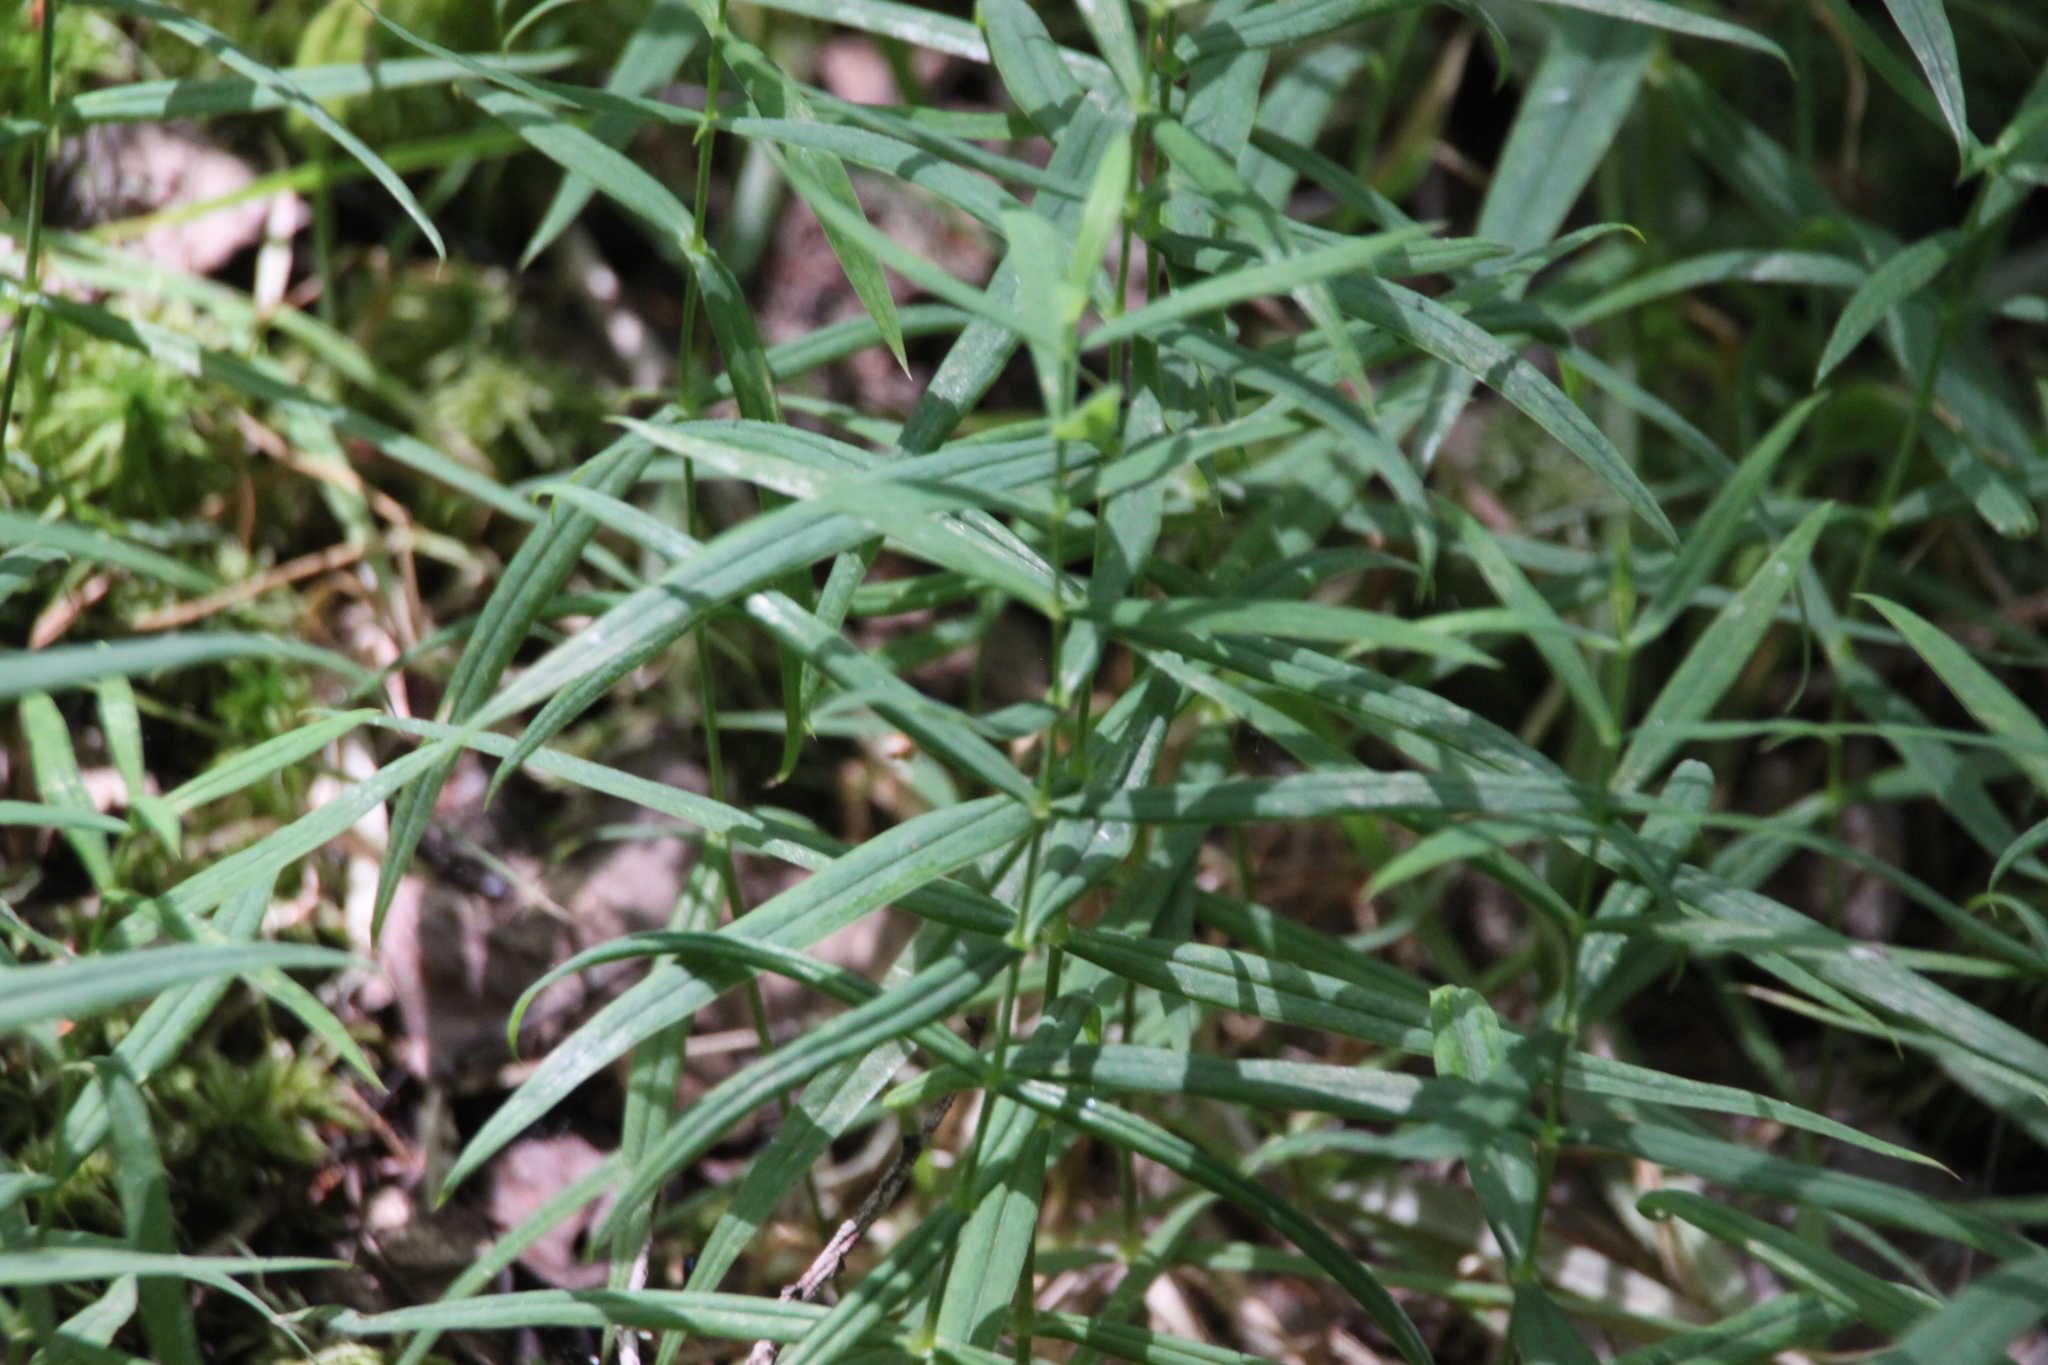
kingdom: Plantae
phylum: Tracheophyta
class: Magnoliopsida
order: Caryophyllales
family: Caryophyllaceae
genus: Rabelera
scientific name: Rabelera holostea
